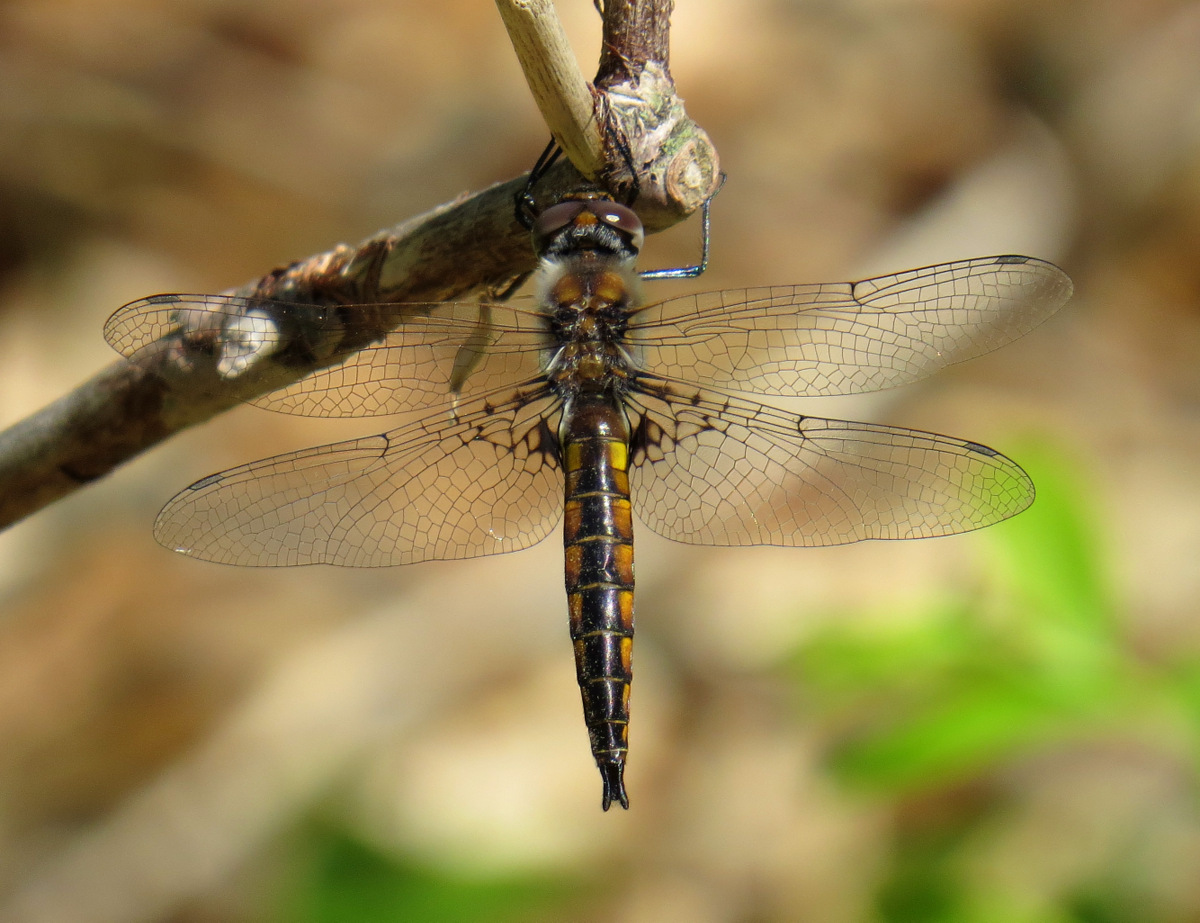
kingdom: Animalia
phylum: Arthropoda
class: Insecta
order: Odonata
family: Corduliidae
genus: Epitheca
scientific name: Epitheca semiaquea
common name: Mantled baskettail
